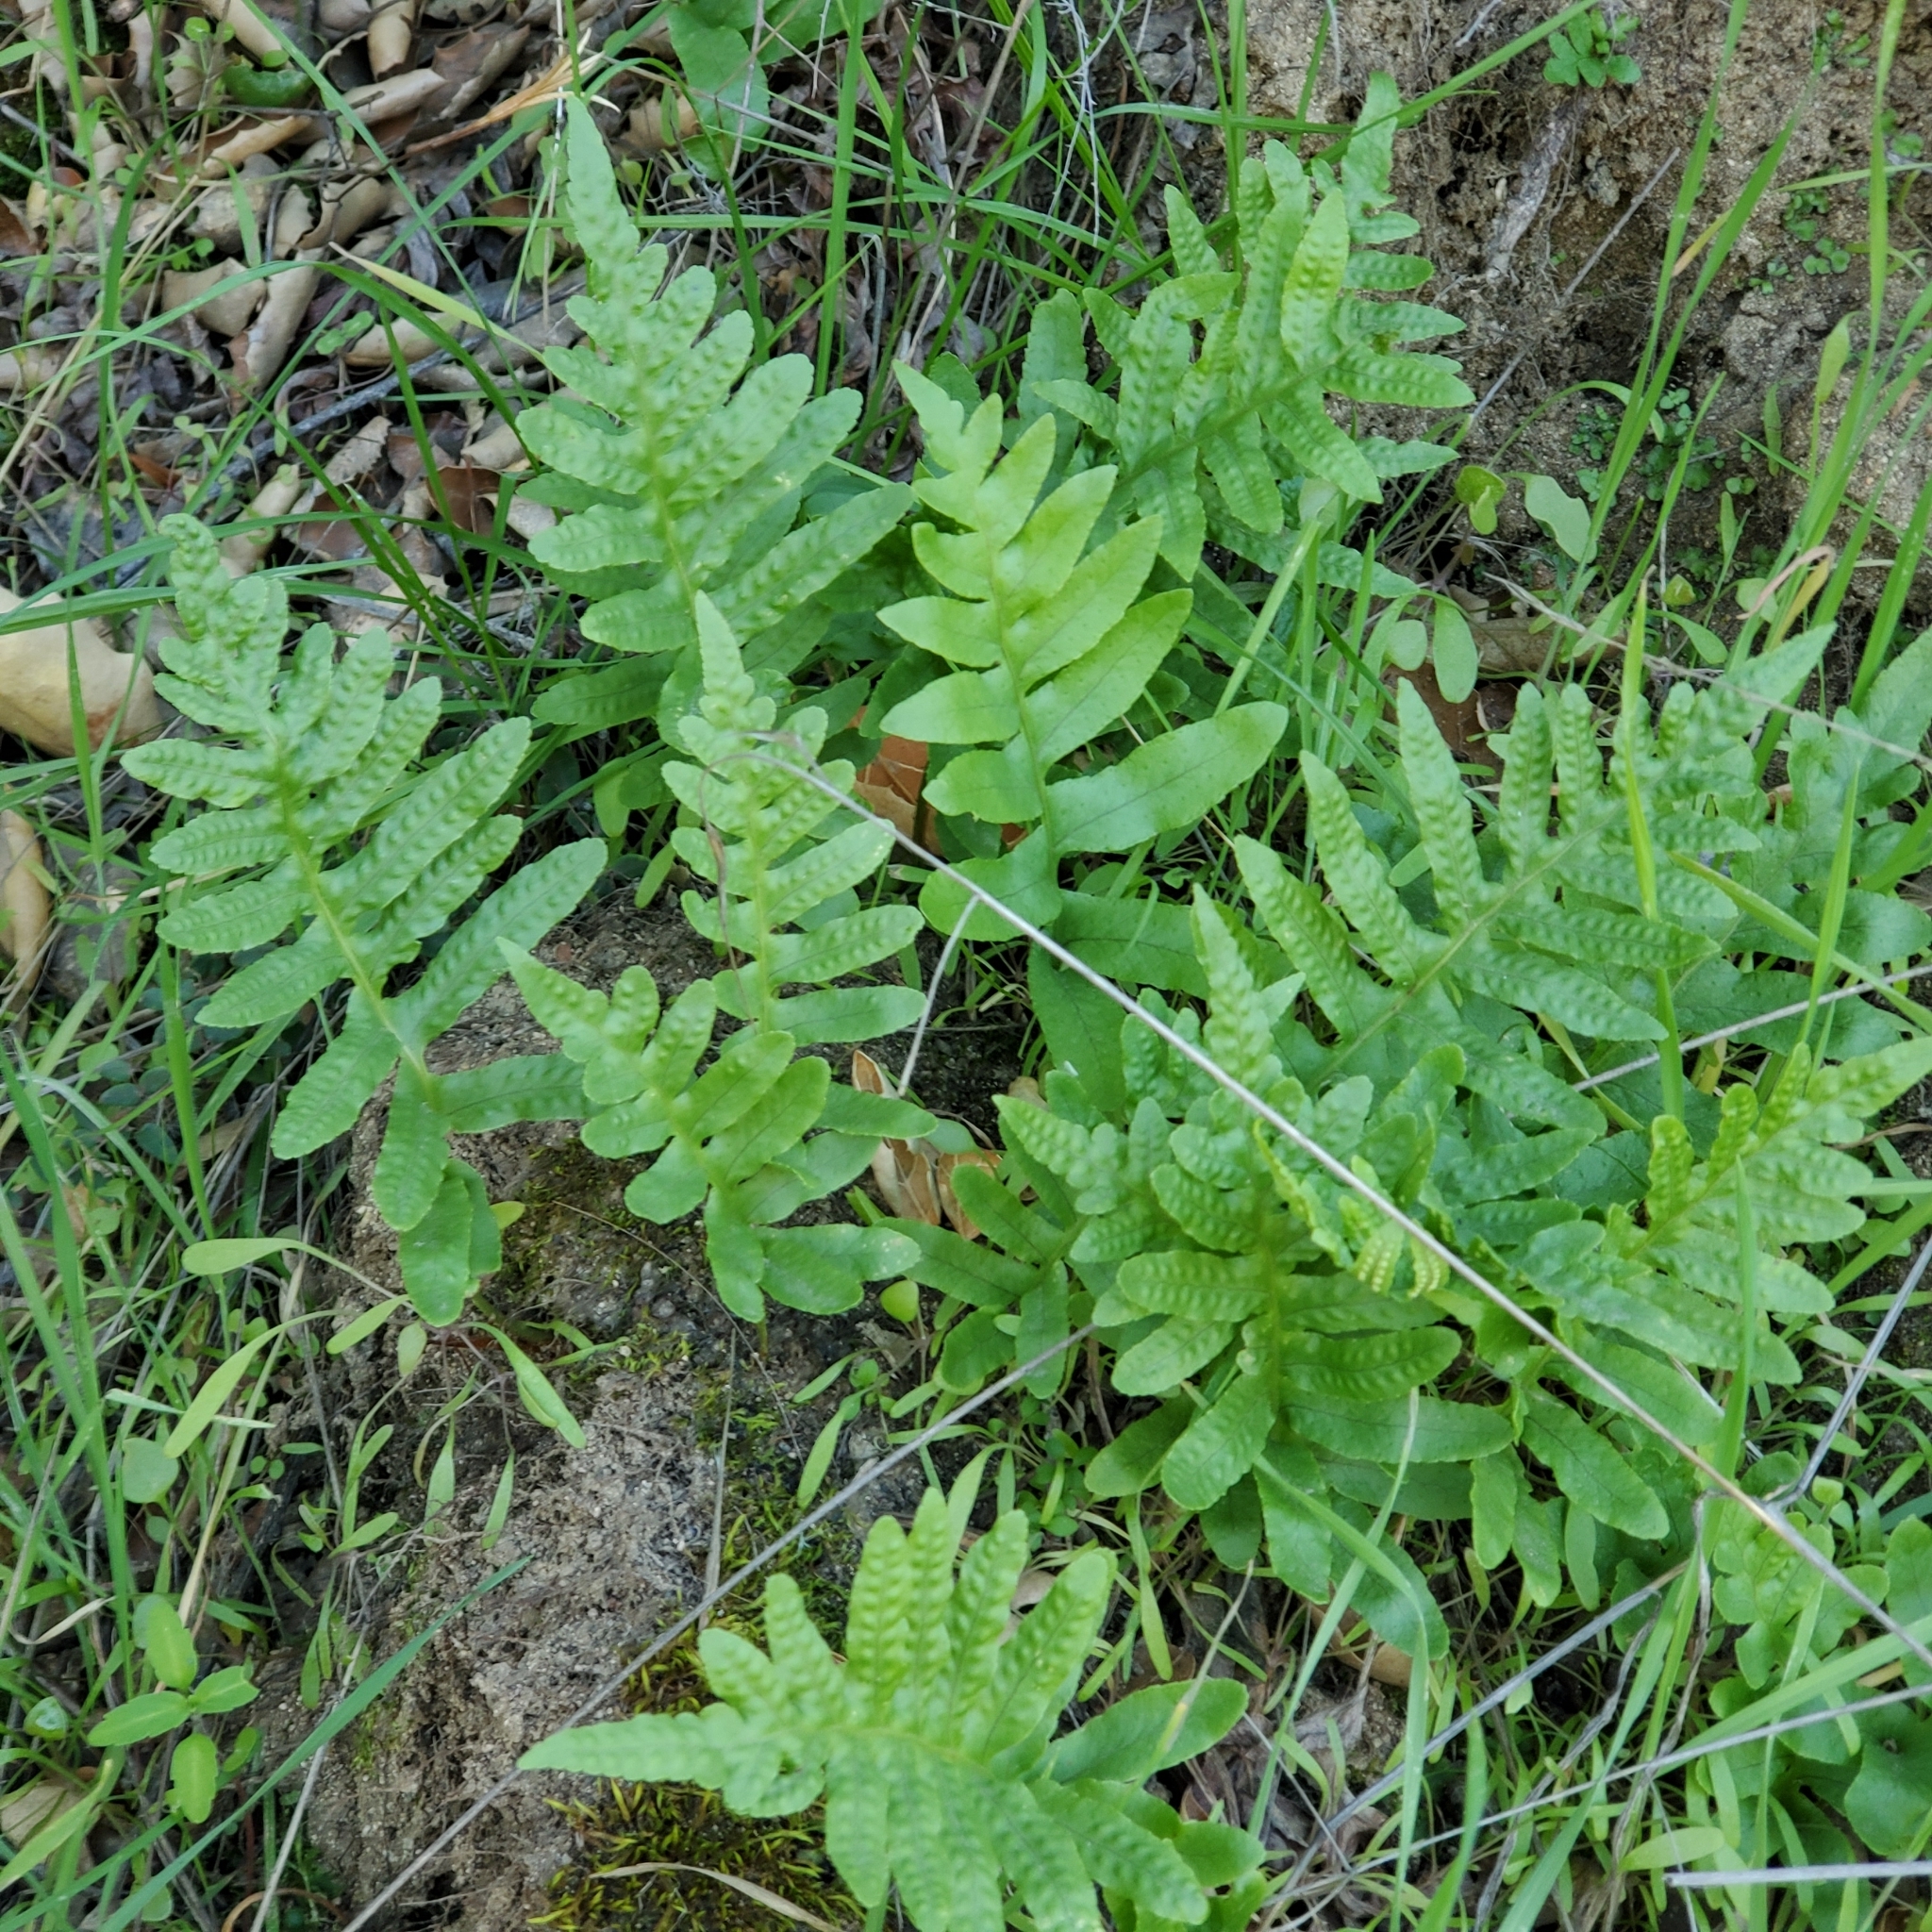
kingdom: Plantae
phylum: Tracheophyta
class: Polypodiopsida
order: Polypodiales
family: Polypodiaceae
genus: Polypodium
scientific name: Polypodium californicum
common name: California polypody
